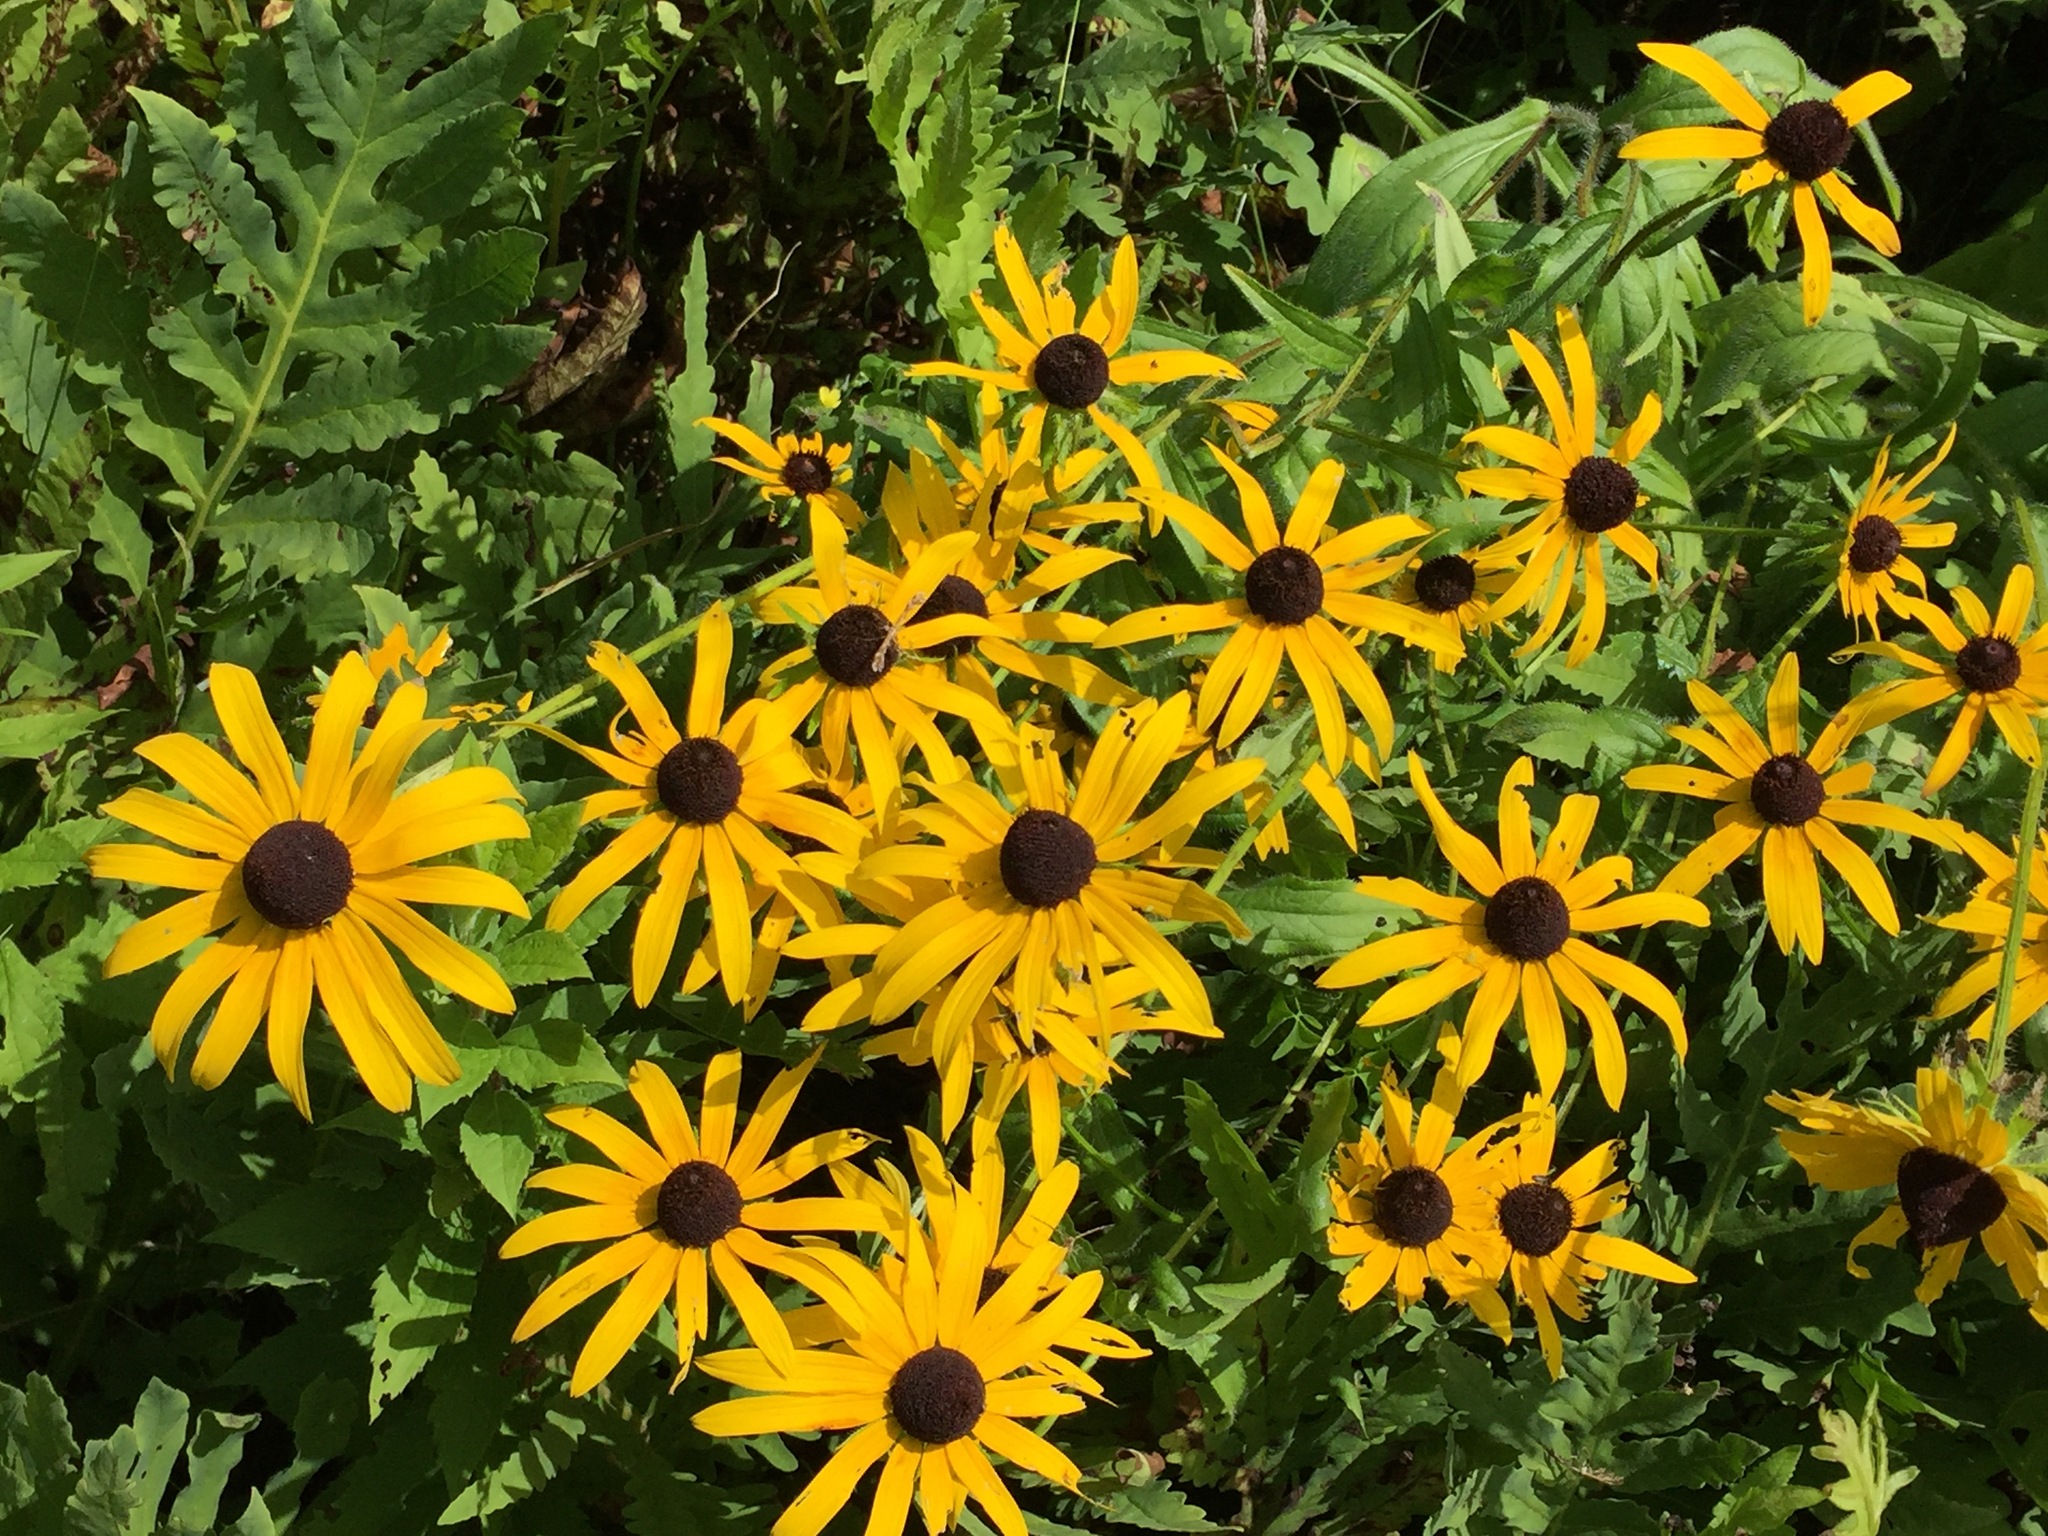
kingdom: Plantae
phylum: Tracheophyta
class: Magnoliopsida
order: Asterales
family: Asteraceae
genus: Rudbeckia
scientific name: Rudbeckia hirta
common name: Black-eyed-susan
